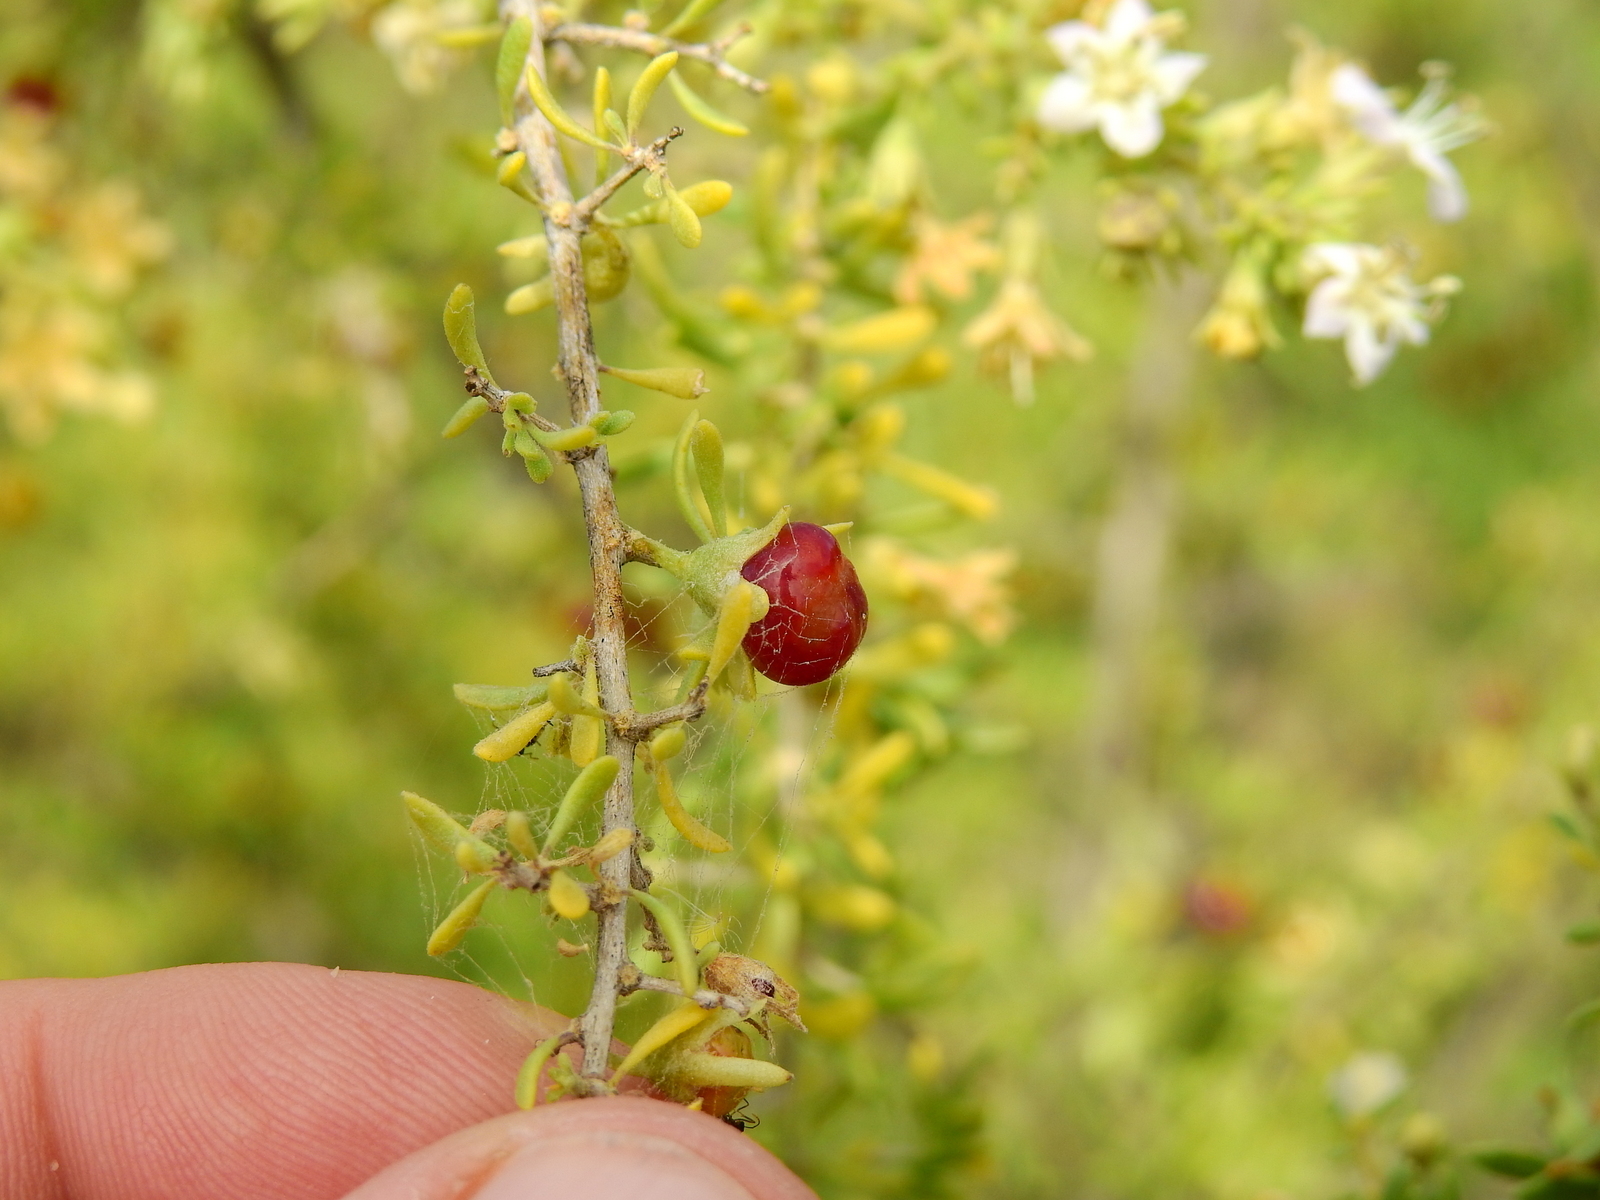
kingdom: Plantae
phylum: Tracheophyta
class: Magnoliopsida
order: Solanales
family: Solanaceae
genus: Lycium
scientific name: Lycium chilense
